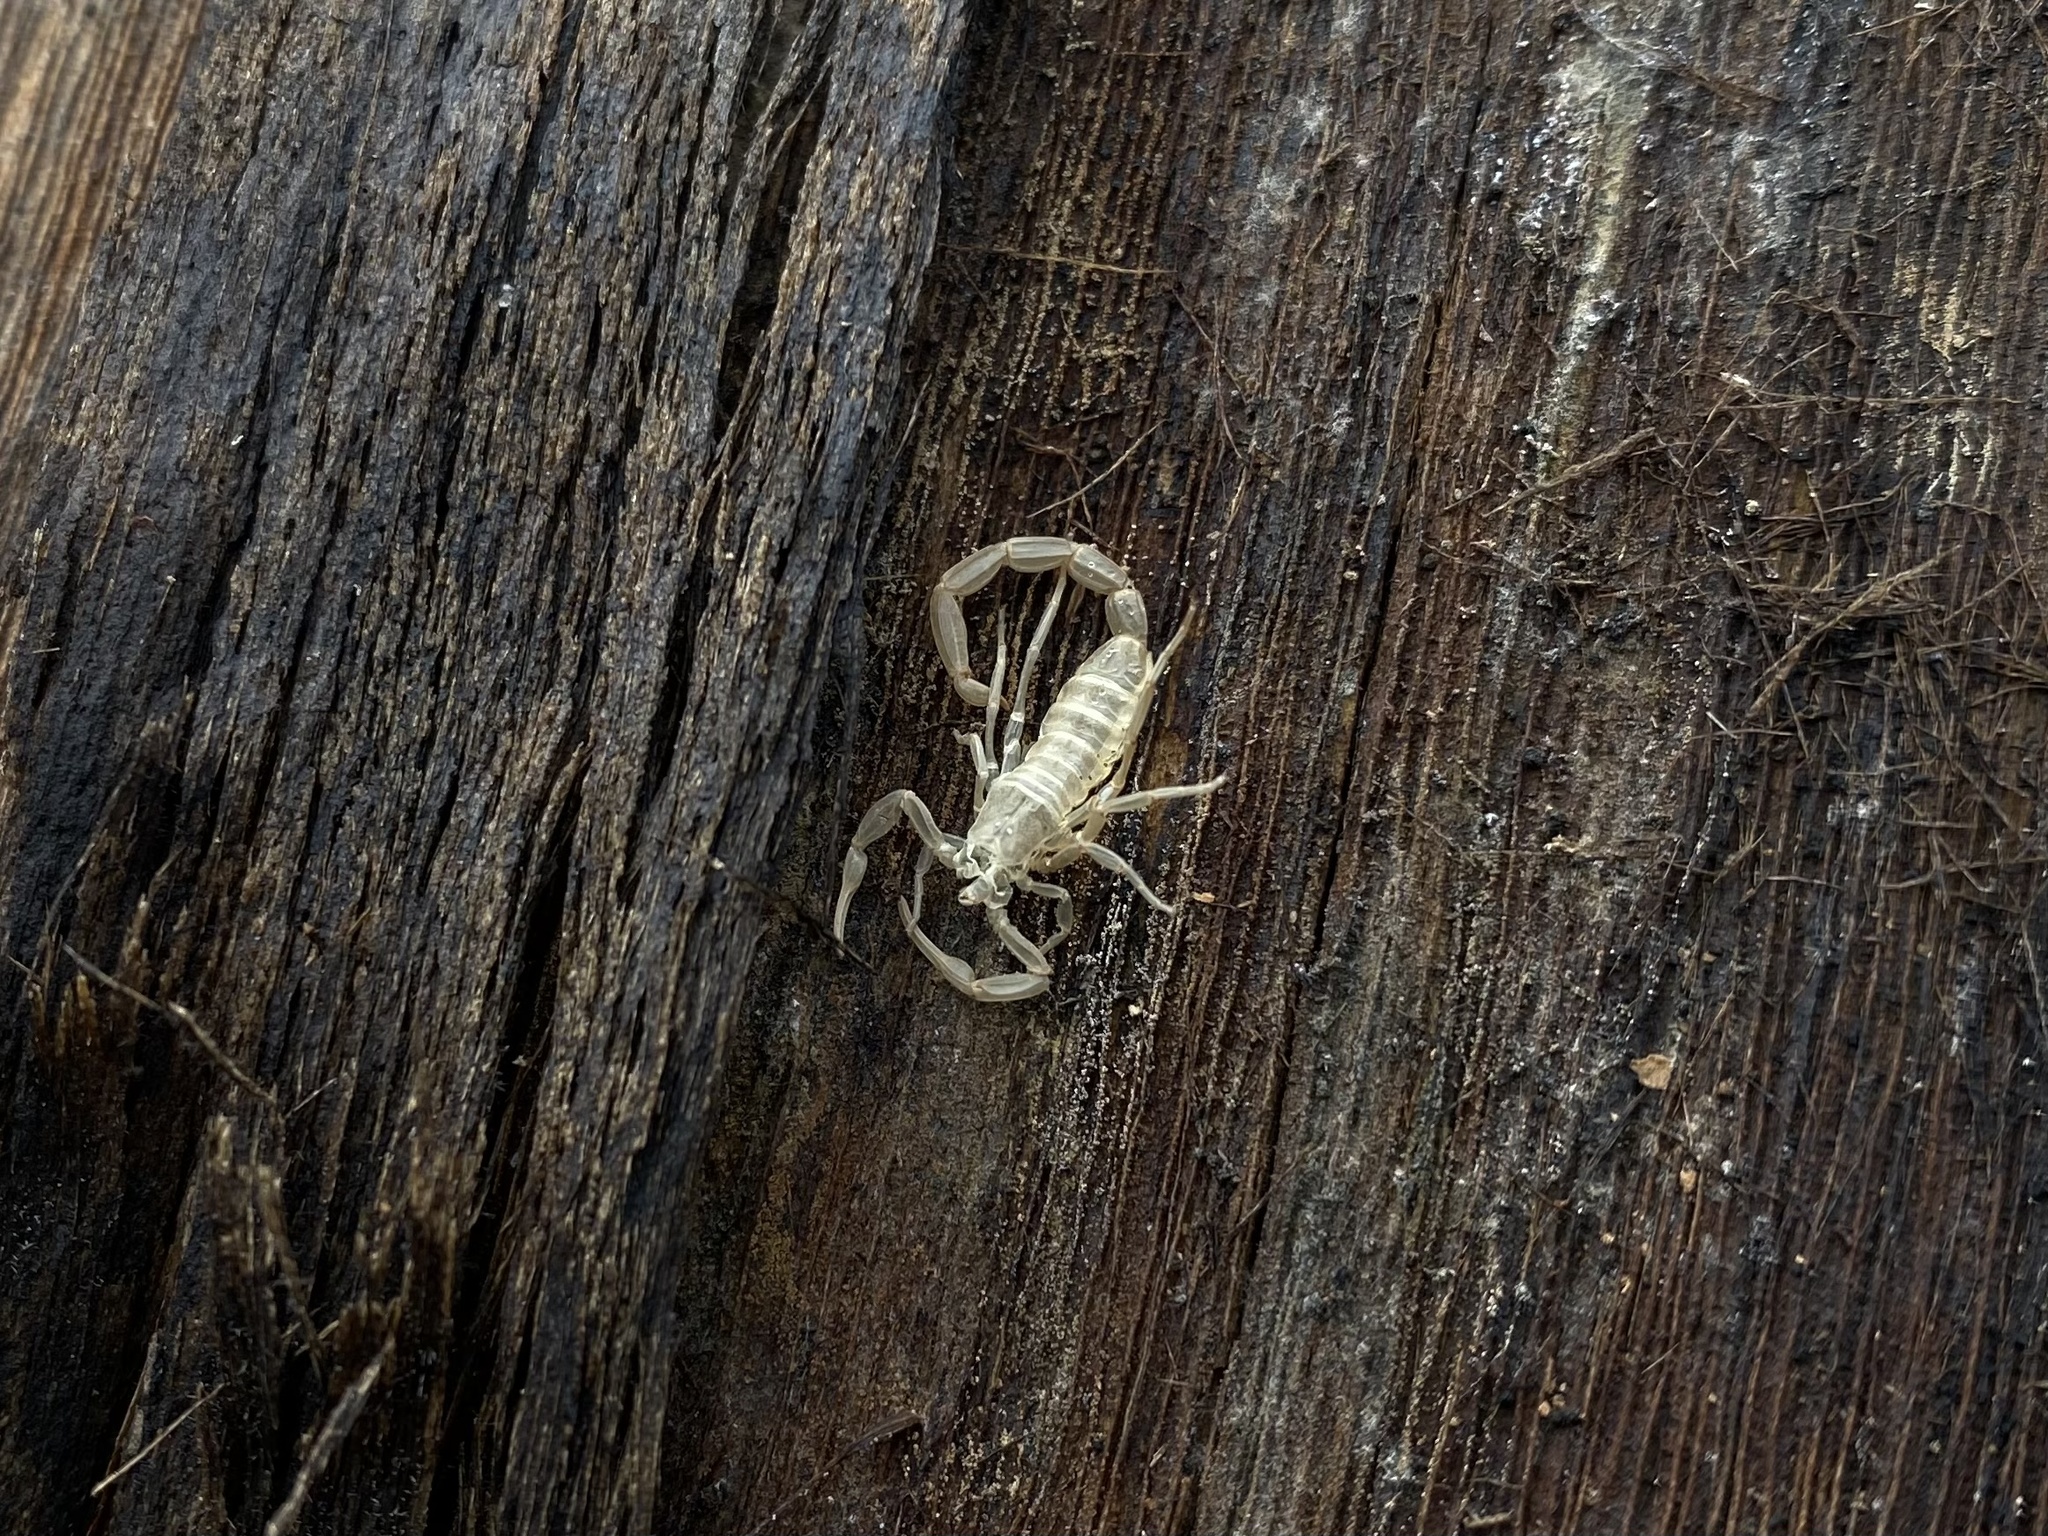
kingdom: Animalia
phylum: Arthropoda
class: Arachnida
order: Scorpiones
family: Buthidae
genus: Centruroides
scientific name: Centruroides vittatus
